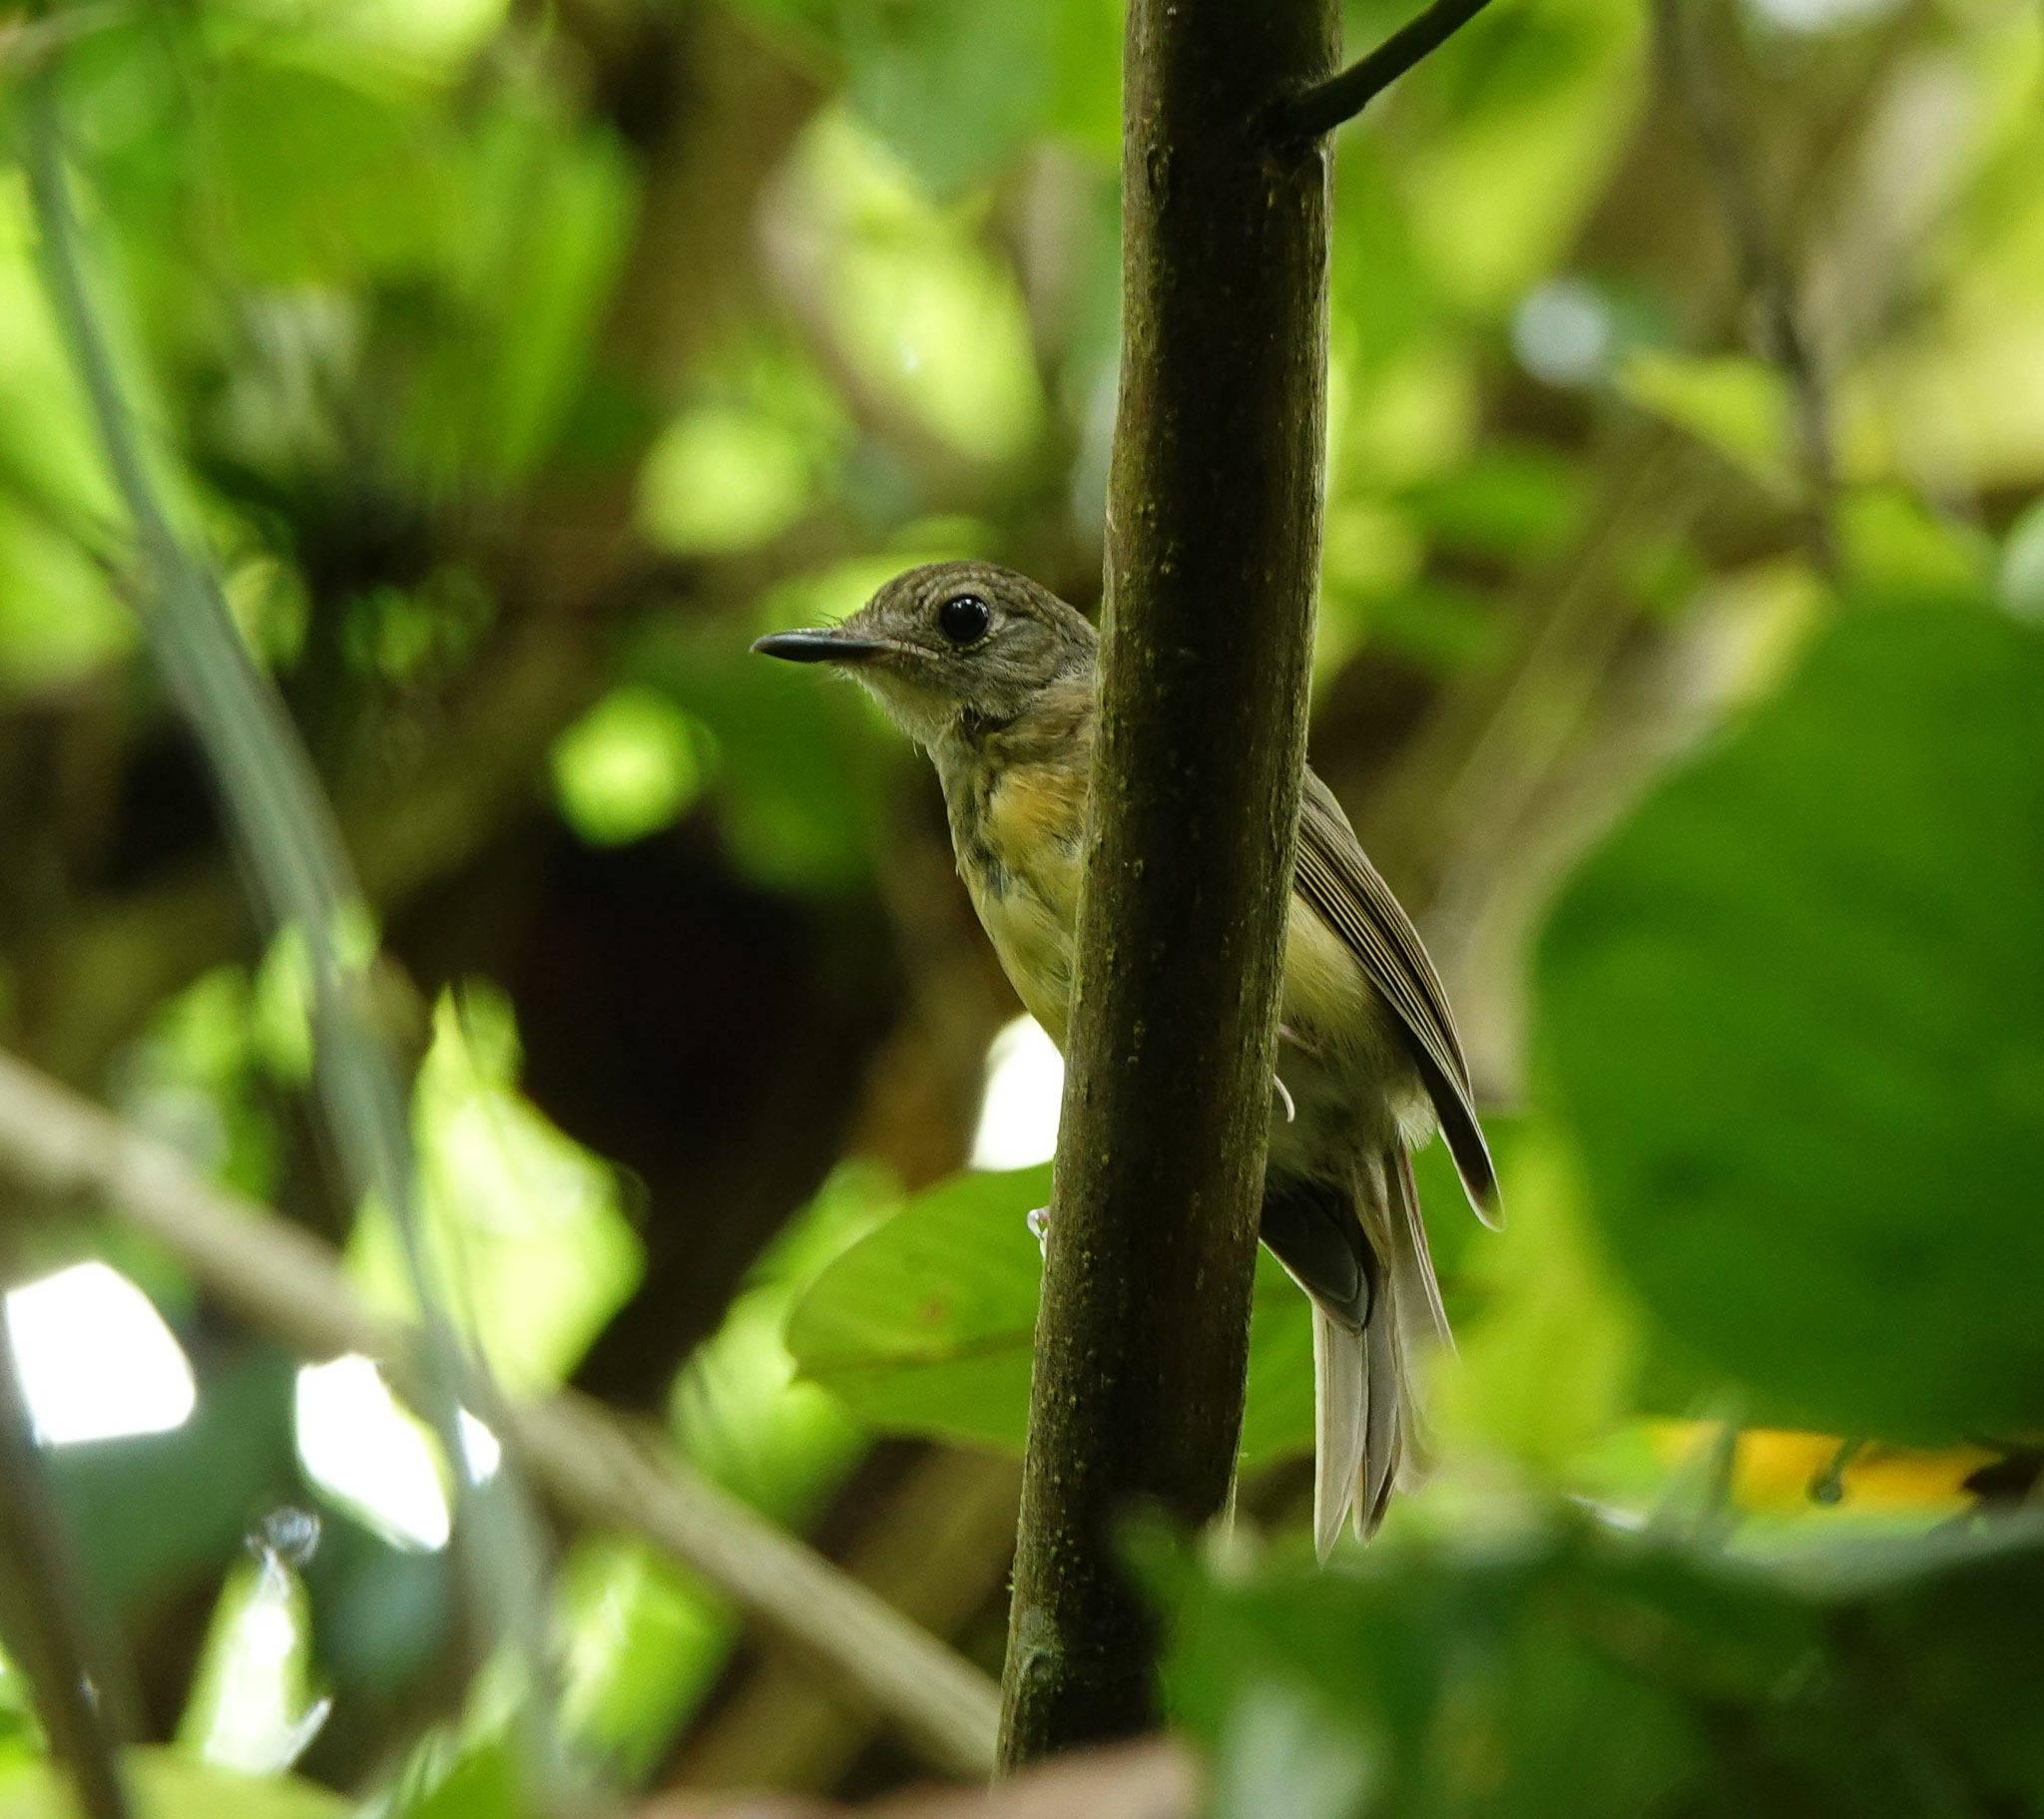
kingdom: Animalia
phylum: Chordata
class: Aves
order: Passeriformes
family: Muscicapidae
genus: Cyornis
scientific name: Cyornis poliogenys
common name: Pale-chinned blue flycatcher
